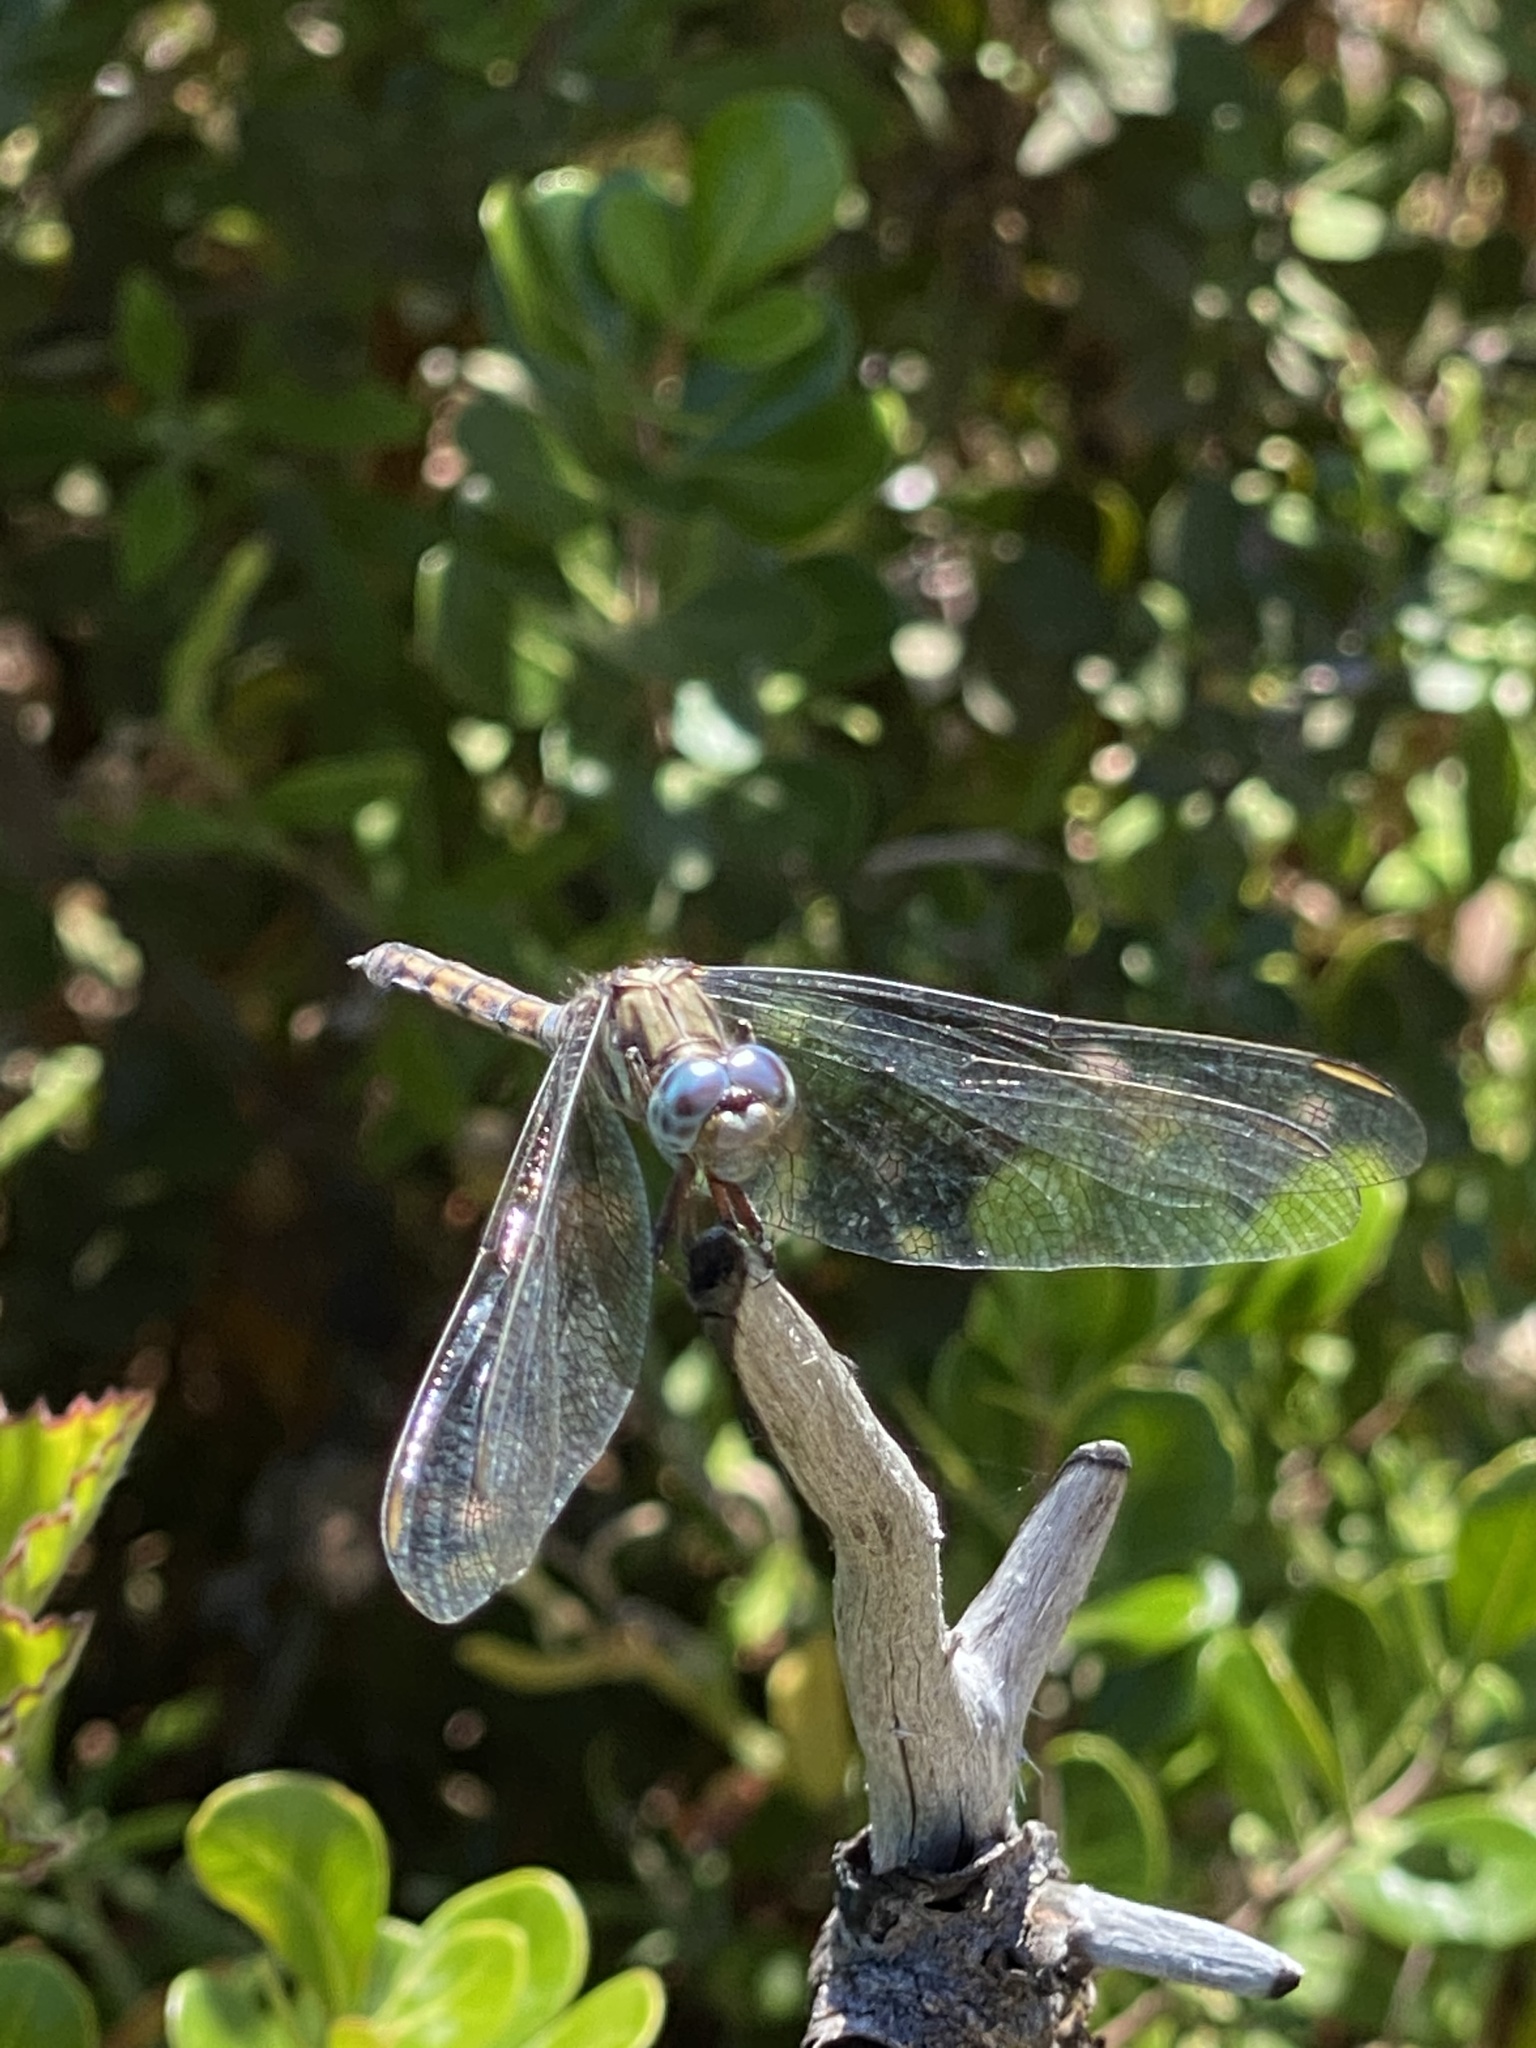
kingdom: Animalia
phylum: Arthropoda
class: Insecta
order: Odonata
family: Libellulidae
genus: Orthetrum
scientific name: Orthetrum julia
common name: Julia skimmer
